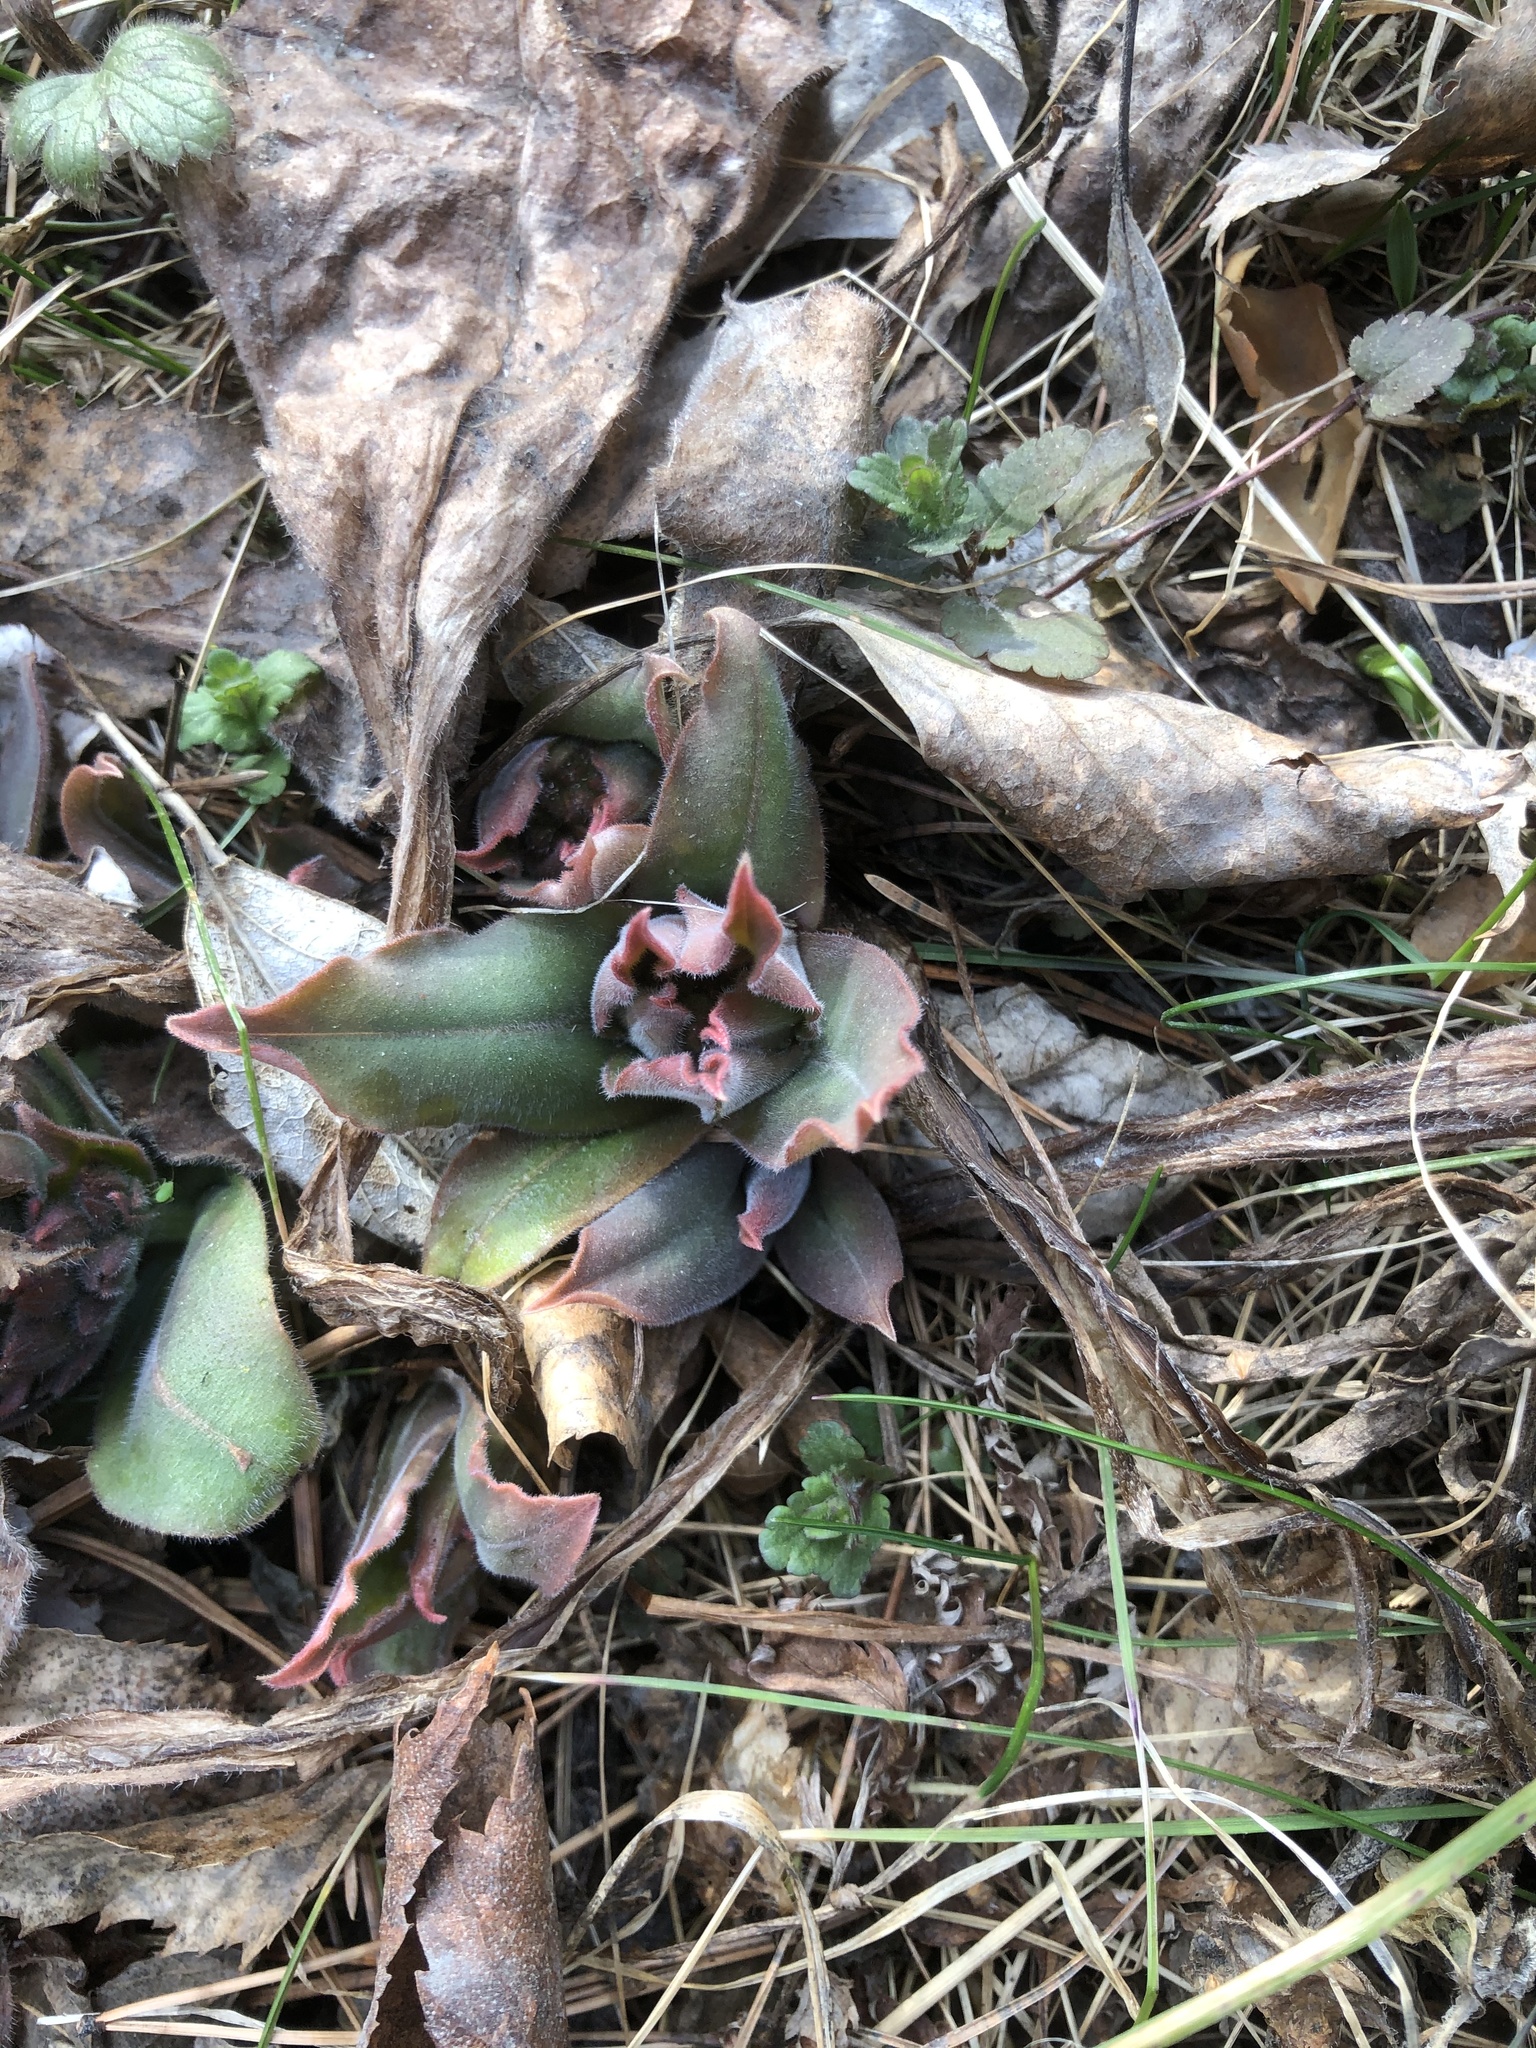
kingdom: Plantae
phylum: Tracheophyta
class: Magnoliopsida
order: Boraginales
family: Boraginaceae
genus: Pulmonaria
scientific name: Pulmonaria mollis
